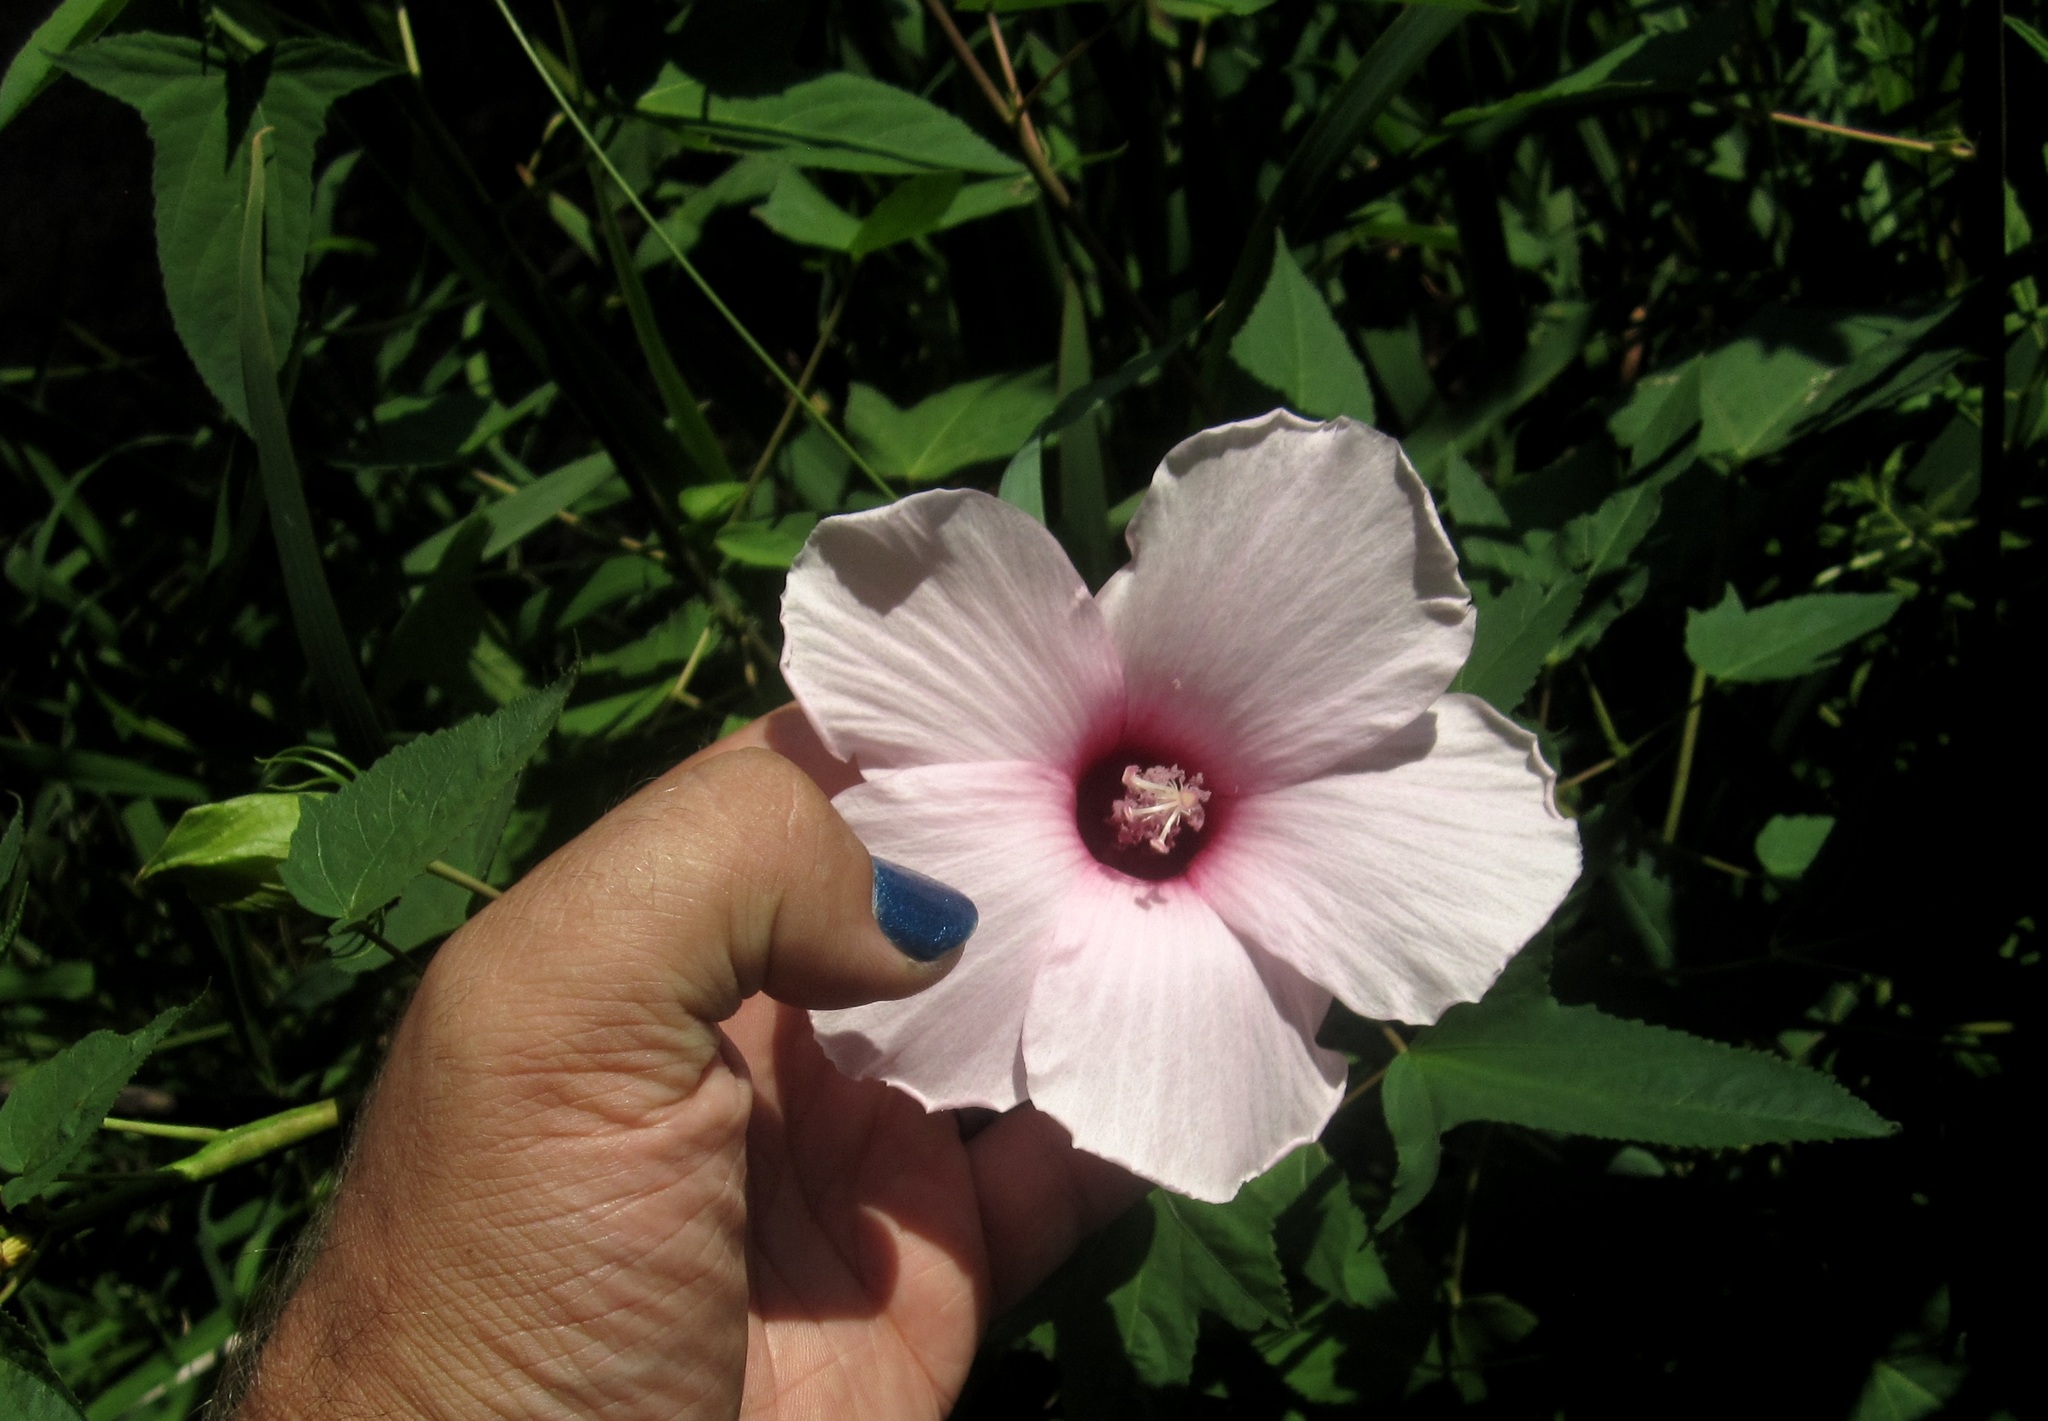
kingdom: Plantae
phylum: Tracheophyta
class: Magnoliopsida
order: Malvales
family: Malvaceae
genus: Hibiscus
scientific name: Hibiscus laevis
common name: Scarlet rose-mallow
